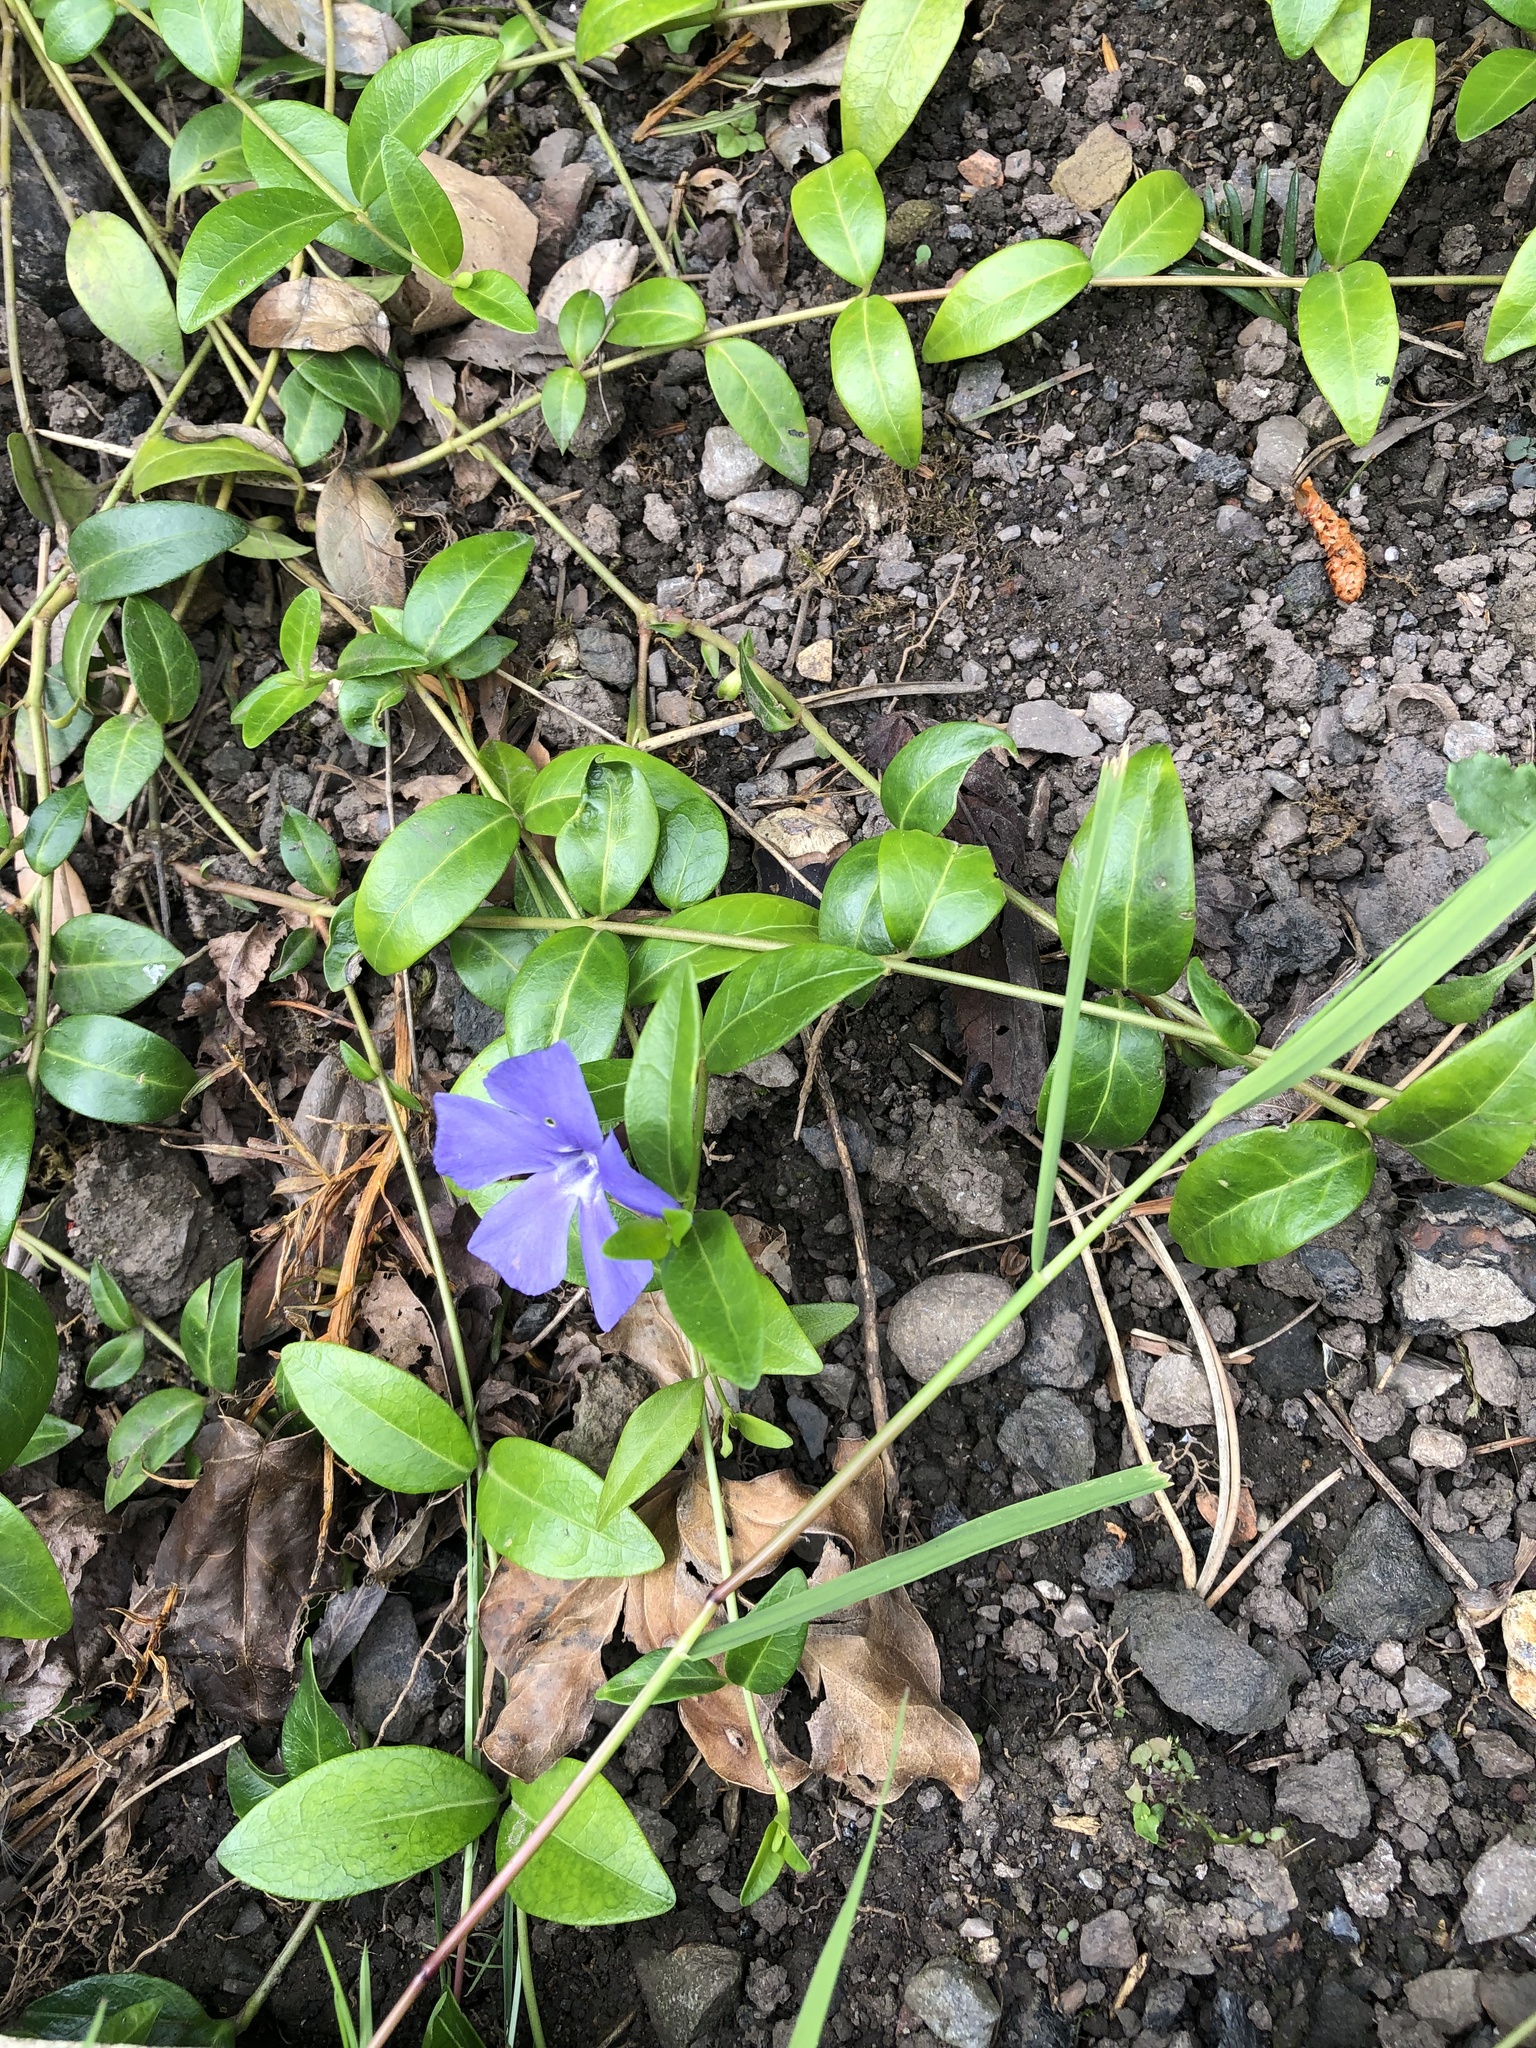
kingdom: Plantae
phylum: Tracheophyta
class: Magnoliopsida
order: Gentianales
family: Apocynaceae
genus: Vinca
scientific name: Vinca minor
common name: Lesser periwinkle
